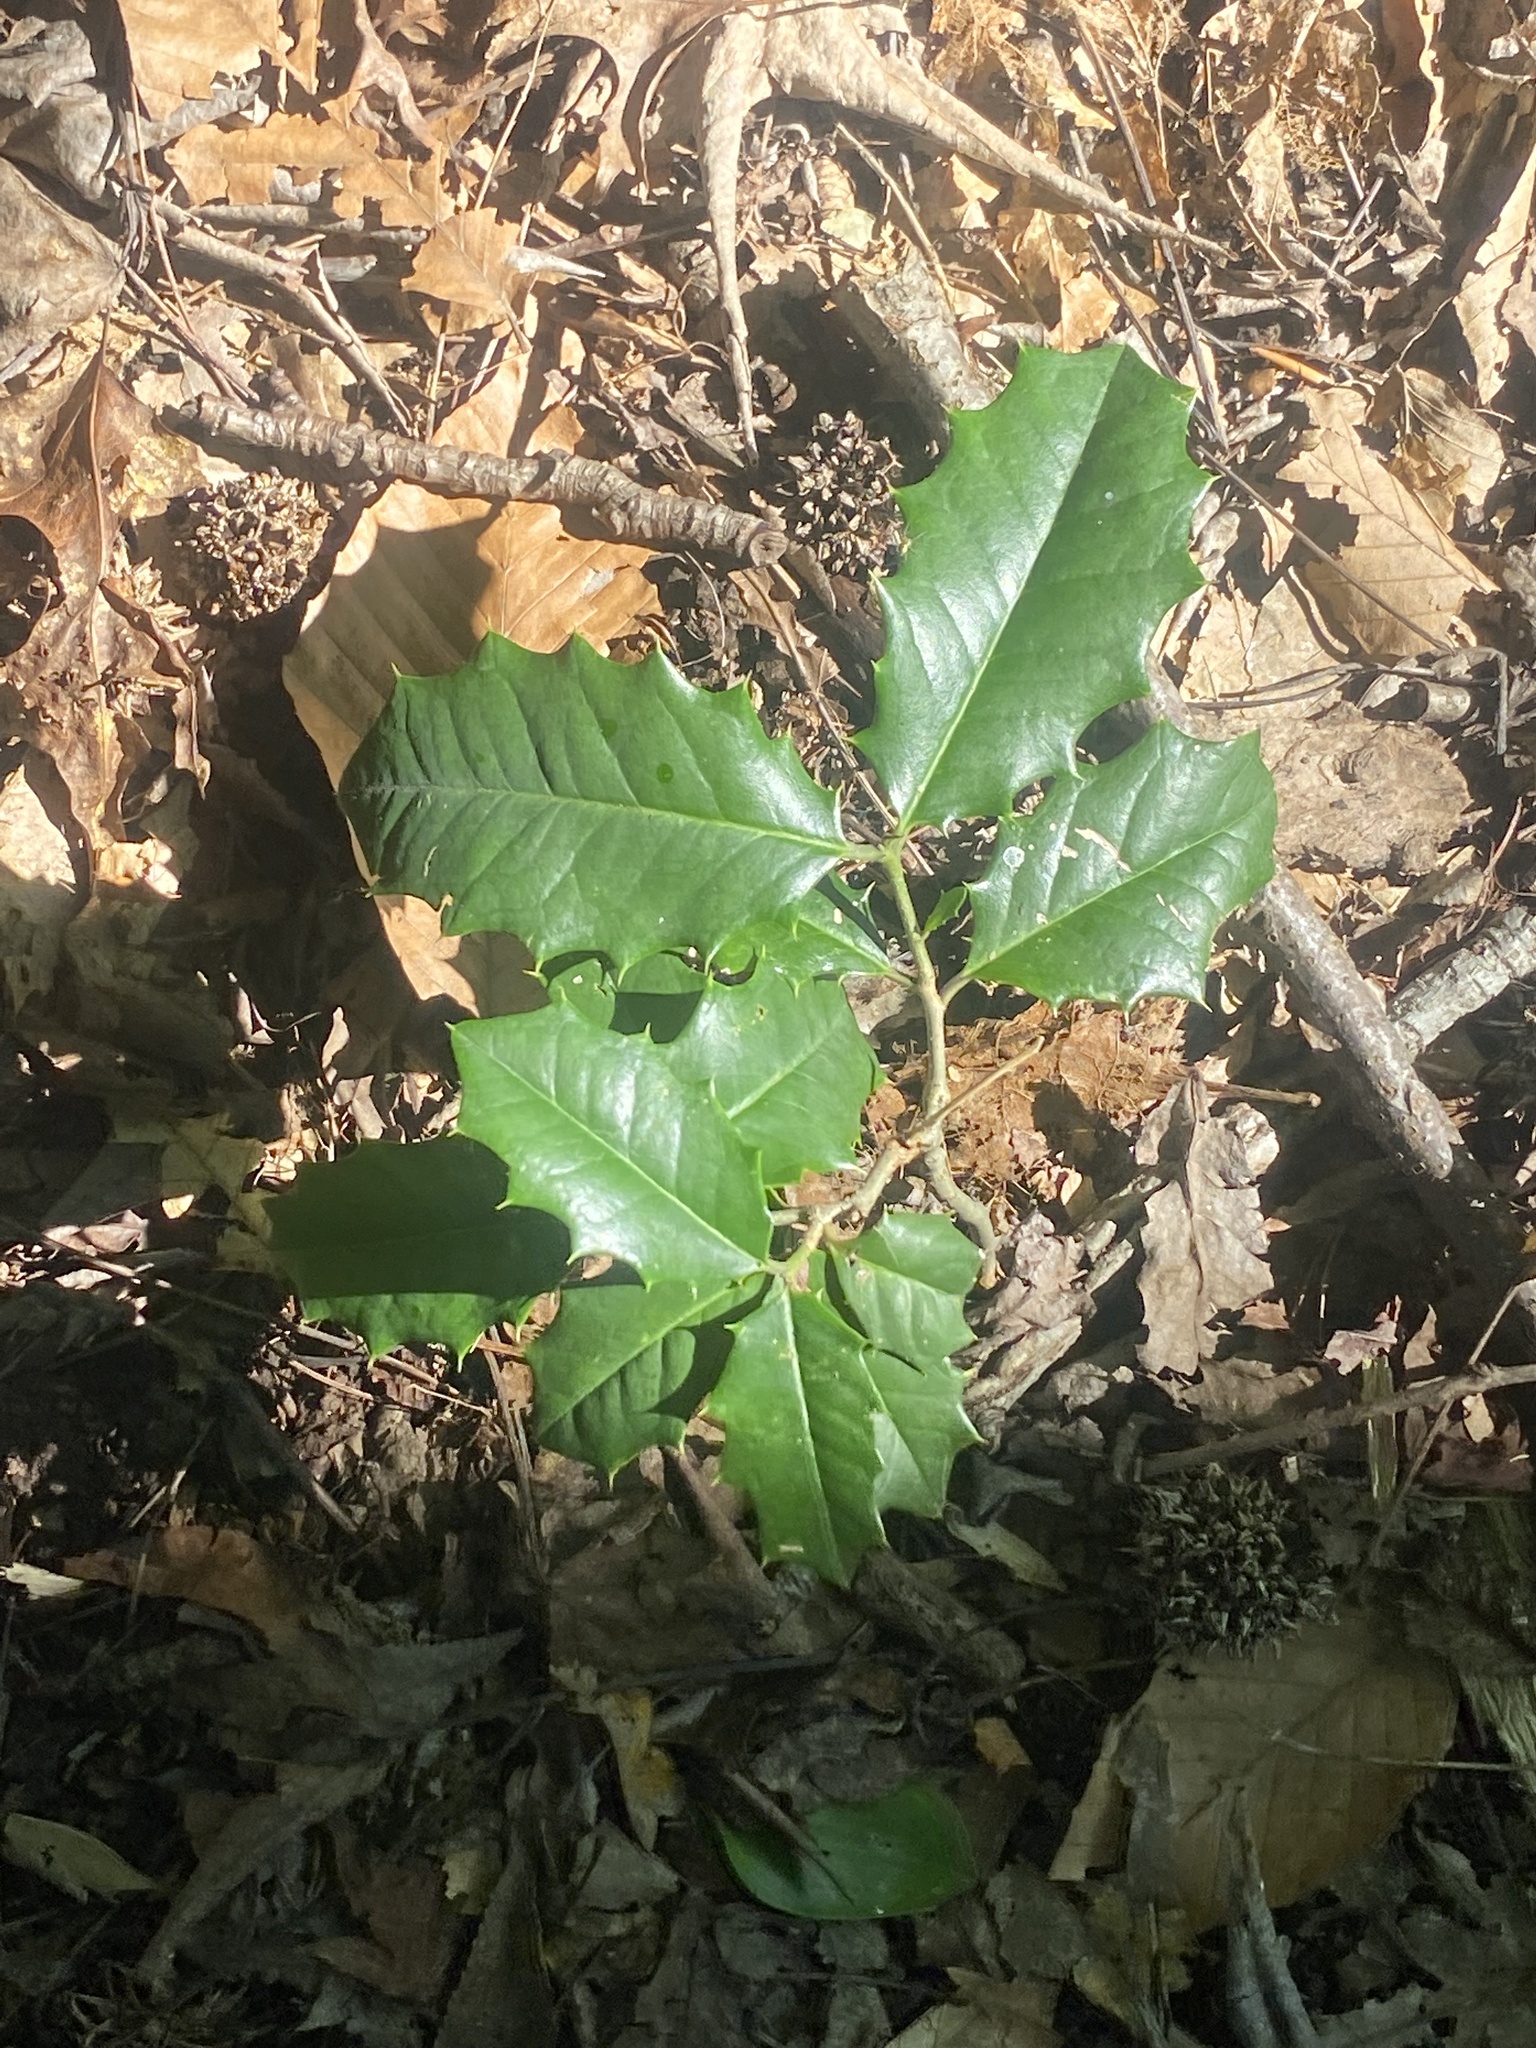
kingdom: Plantae
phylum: Tracheophyta
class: Magnoliopsida
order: Aquifoliales
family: Aquifoliaceae
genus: Ilex
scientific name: Ilex opaca
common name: American holly
